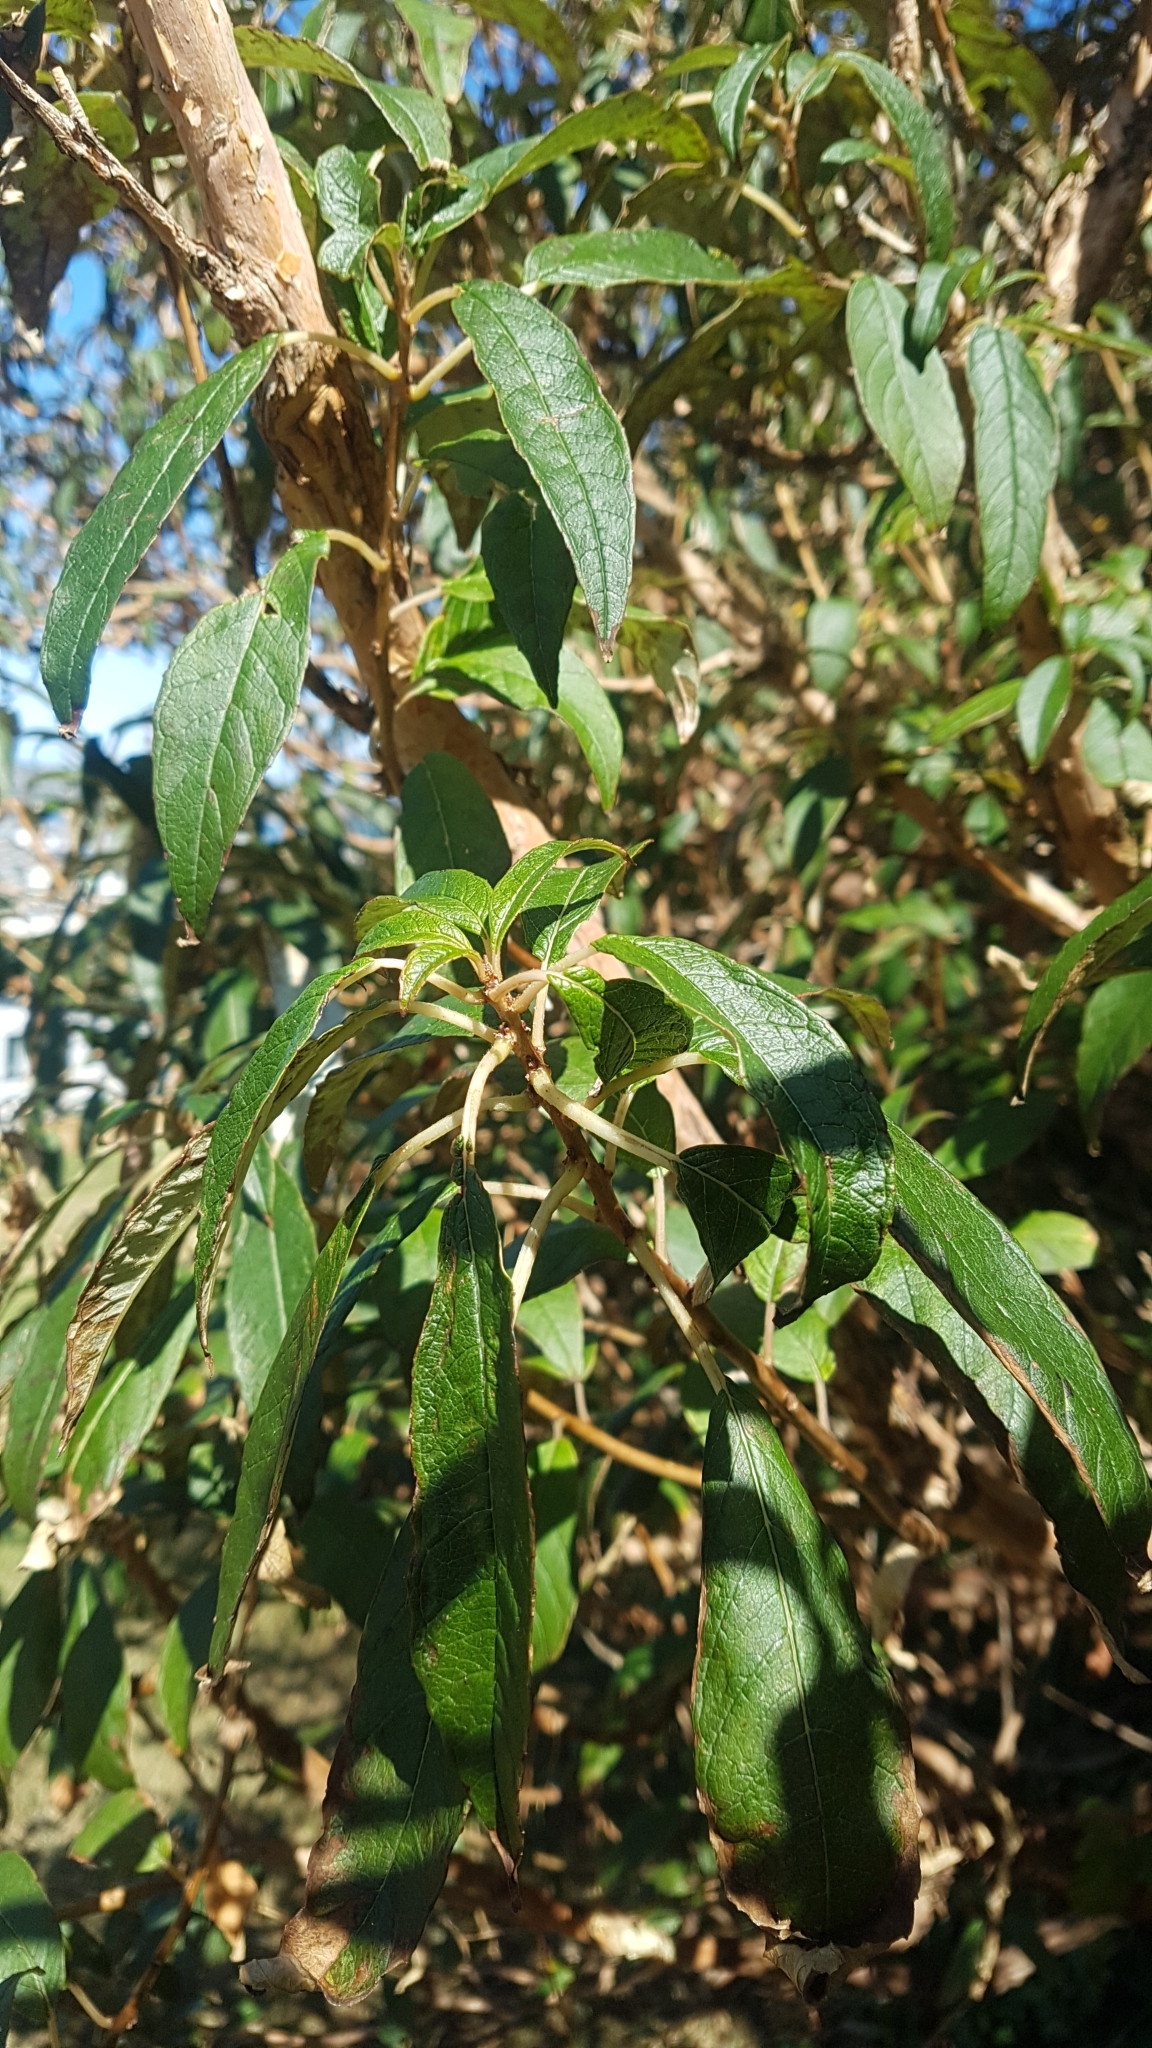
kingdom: Plantae
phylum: Tracheophyta
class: Magnoliopsida
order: Myrtales
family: Onagraceae
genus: Fuchsia
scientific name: Fuchsia excorticata
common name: Tree fuchsia
